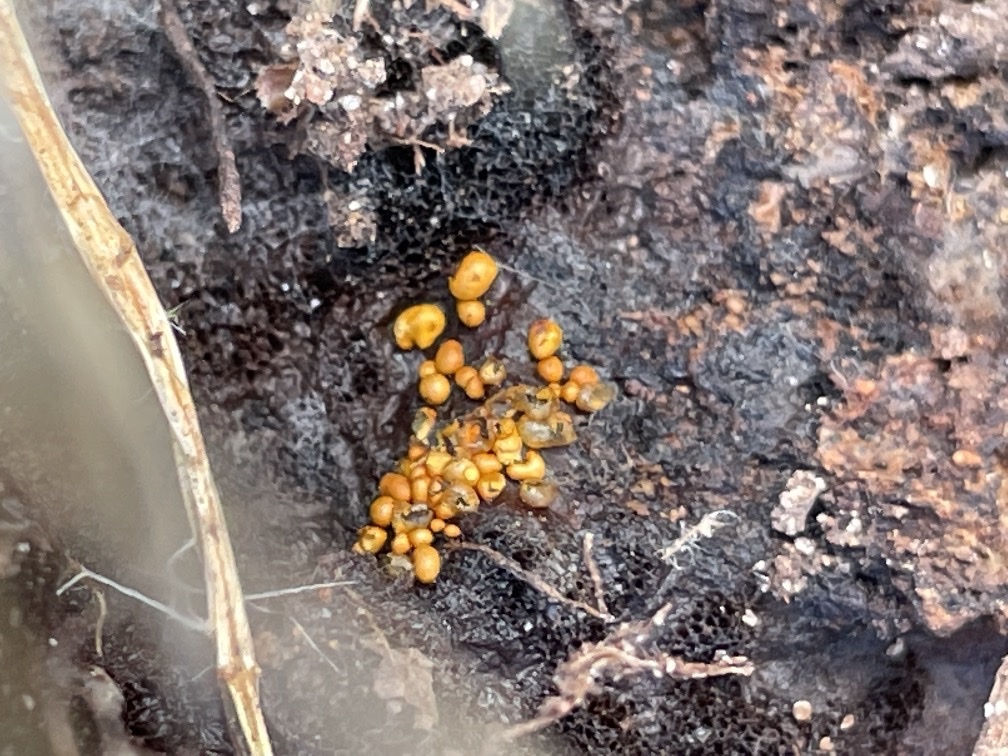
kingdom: Fungi
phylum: Ascomycota
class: Sordariomycetes
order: Hypocreales
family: Ophiocordycipitaceae
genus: Polycephalomyces
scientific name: Polycephalomyces tomentosus
